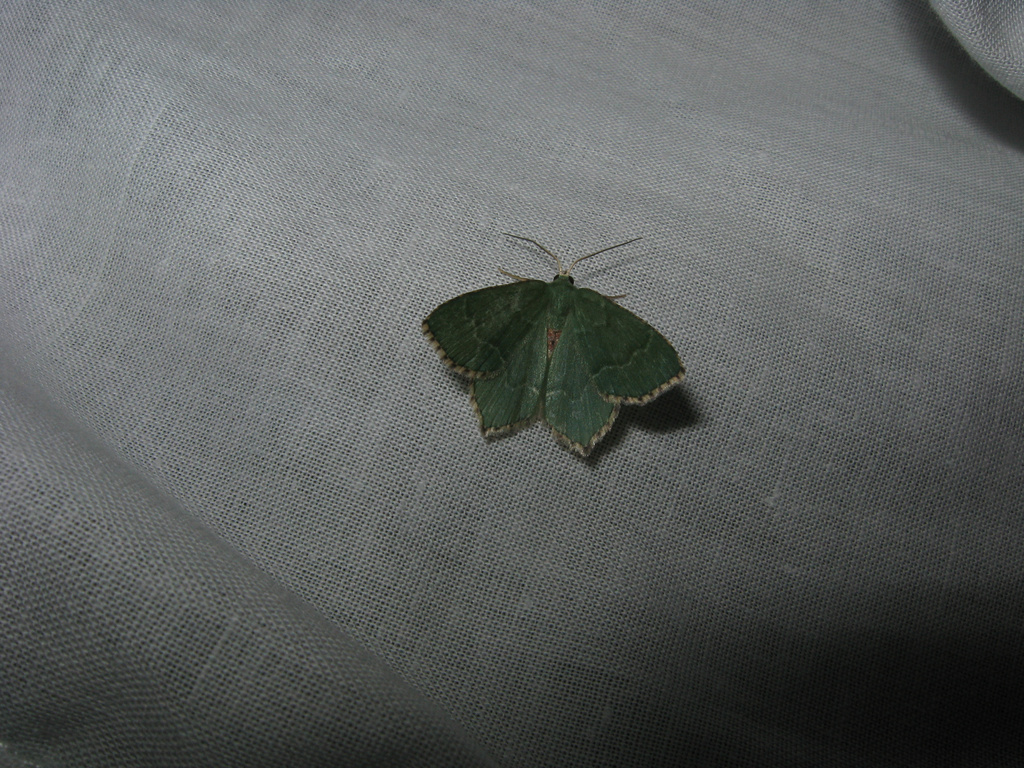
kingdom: Animalia
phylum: Arthropoda
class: Insecta
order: Lepidoptera
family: Geometridae
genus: Hemithea
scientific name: Hemithea aestivaria
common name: Common emerald
